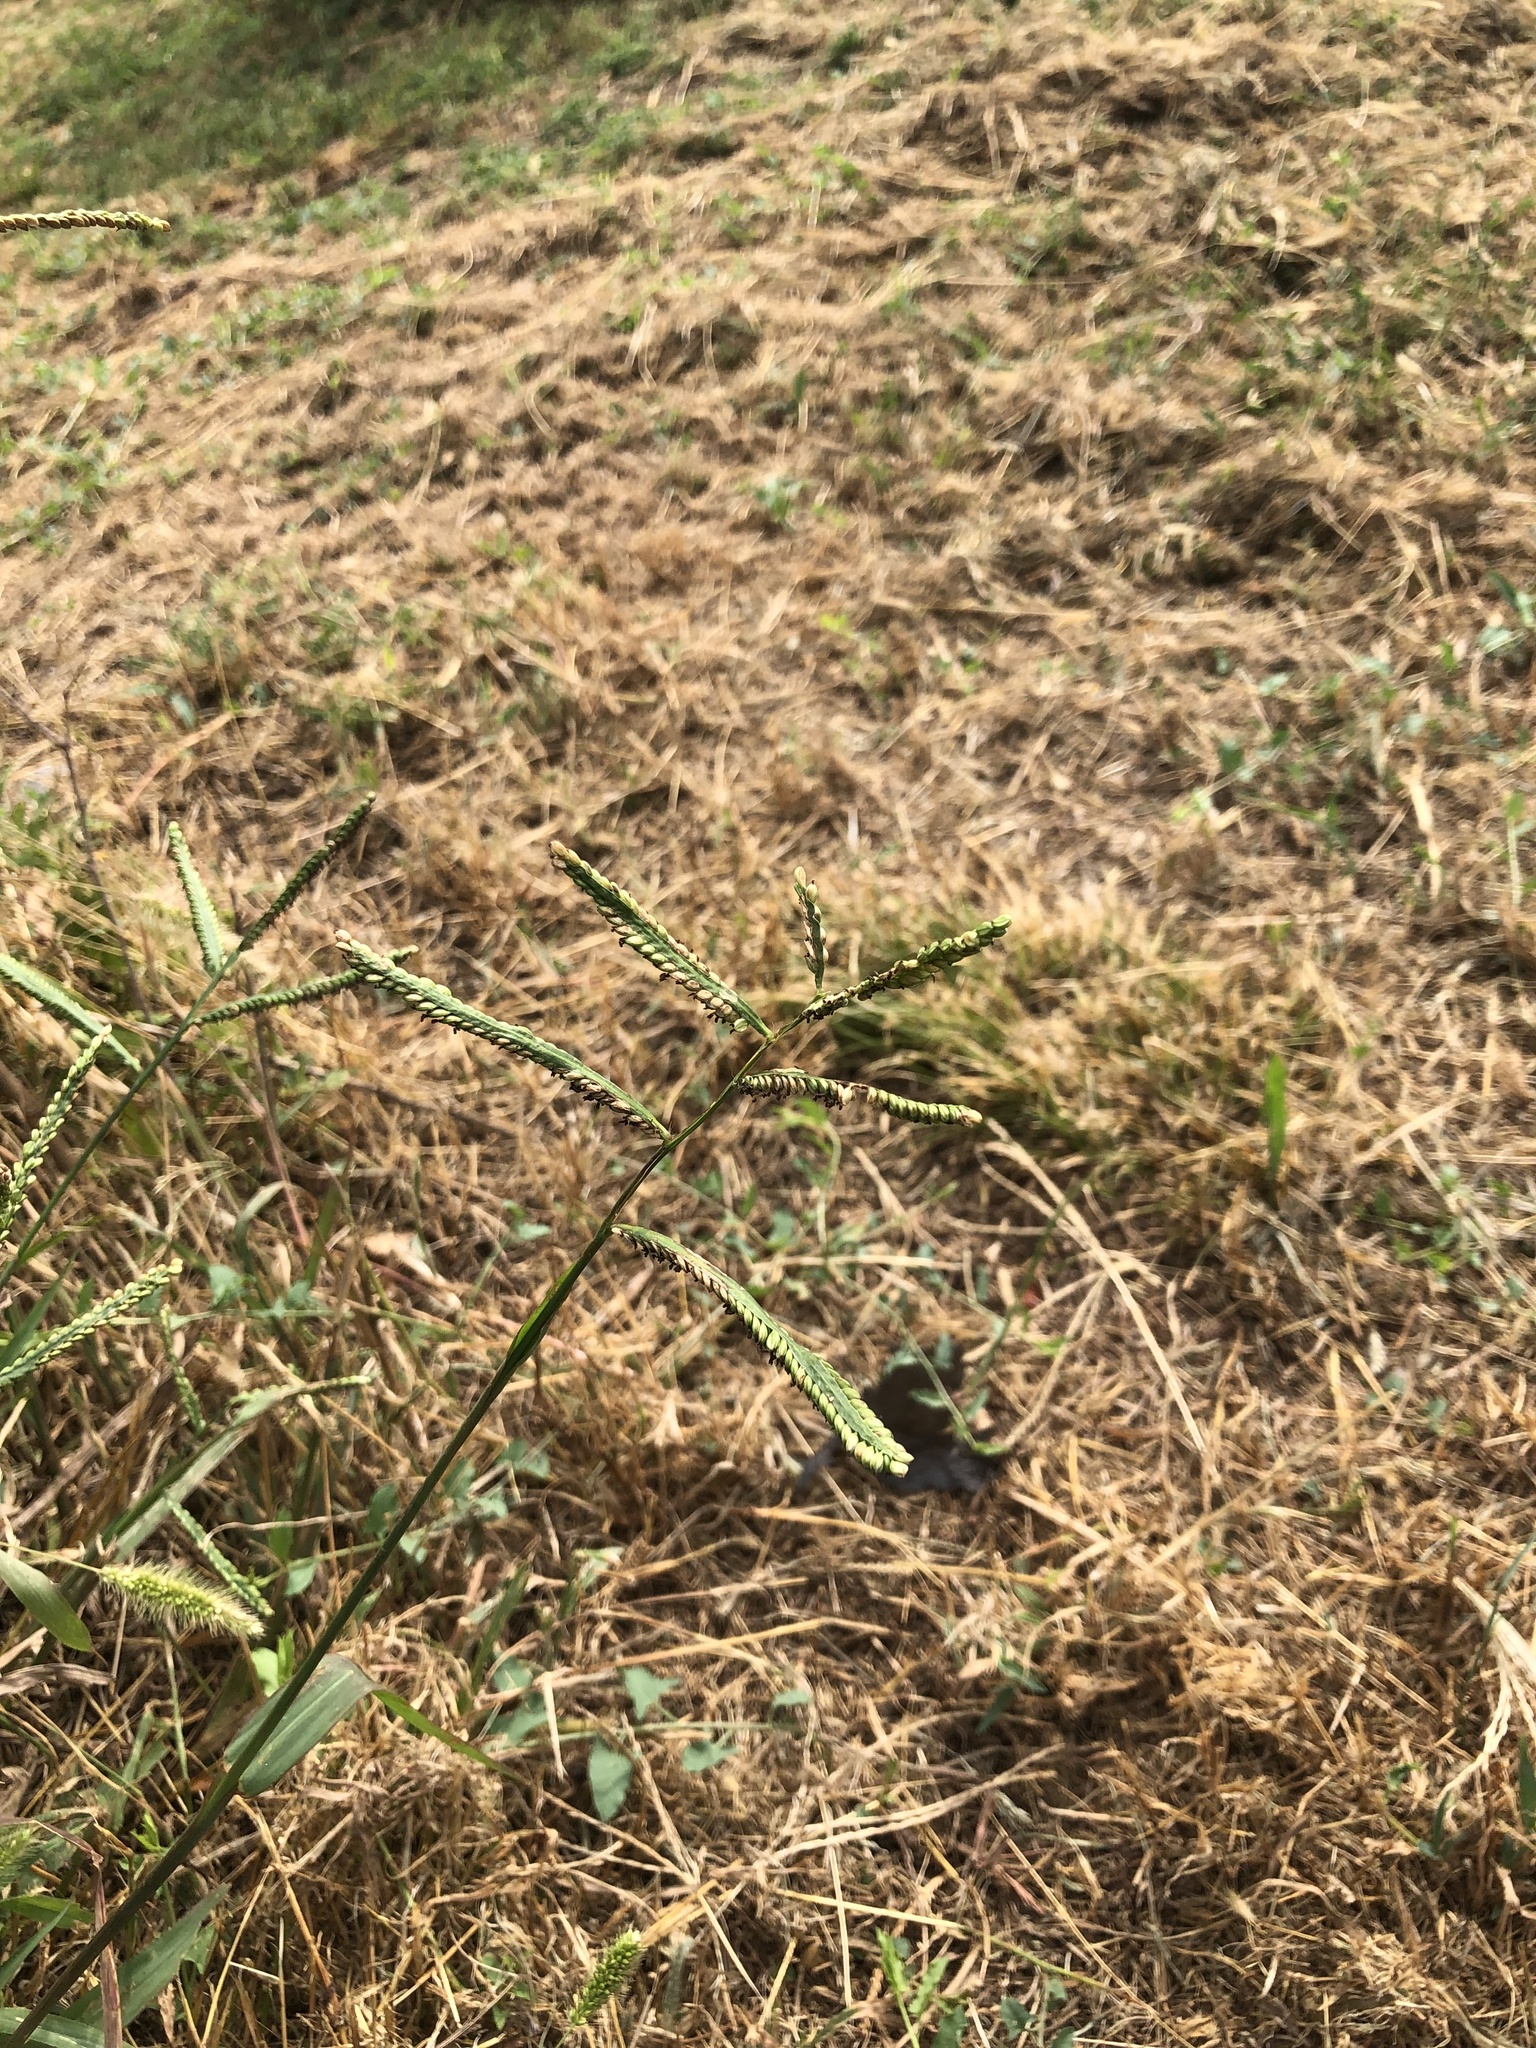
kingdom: Plantae
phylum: Tracheophyta
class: Liliopsida
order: Poales
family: Poaceae
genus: Paspalum
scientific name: Paspalum pubiflorum
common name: Hairy-seed paspalum
